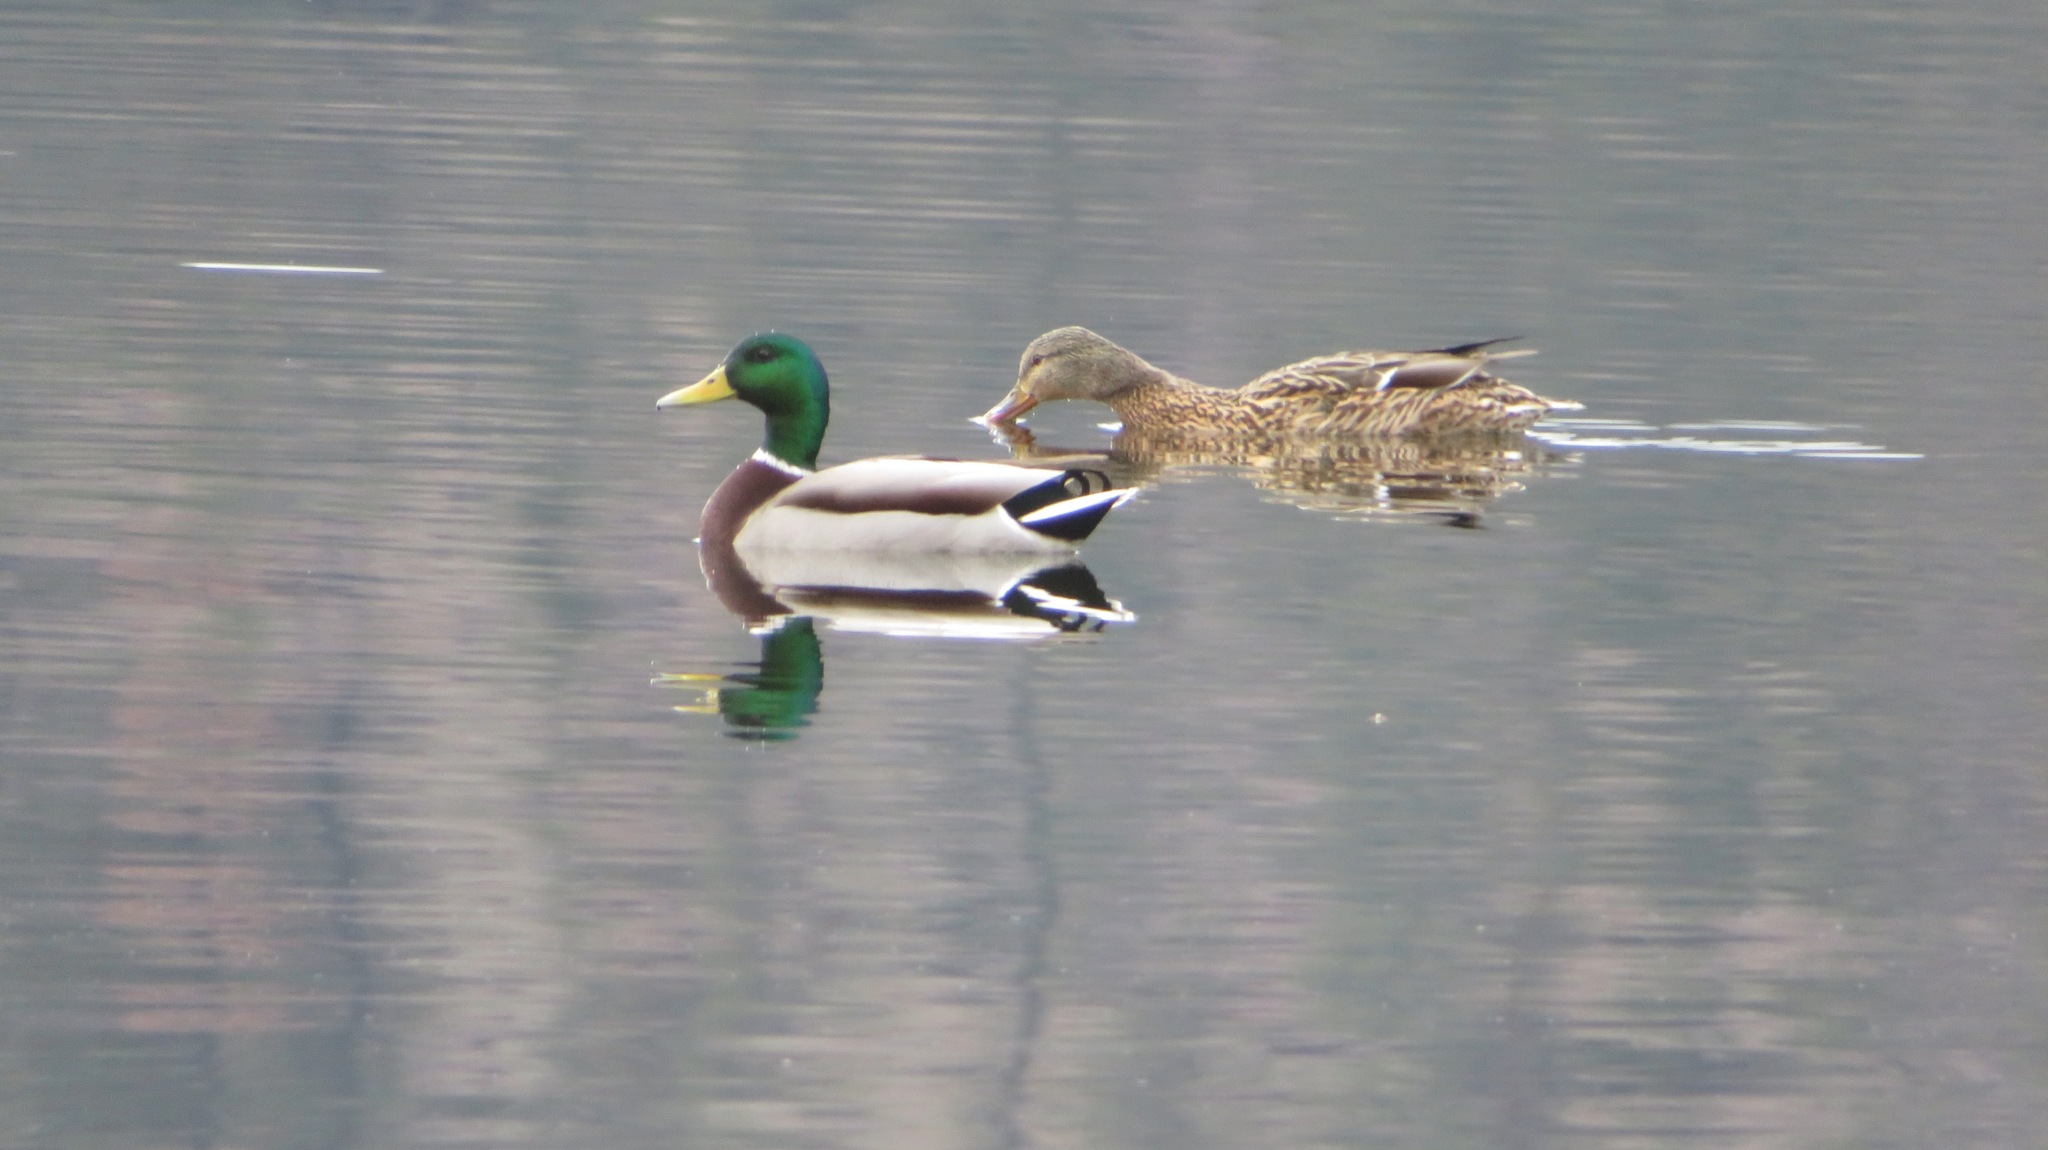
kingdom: Animalia
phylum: Chordata
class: Aves
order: Anseriformes
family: Anatidae
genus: Anas
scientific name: Anas platyrhynchos
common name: Mallard
